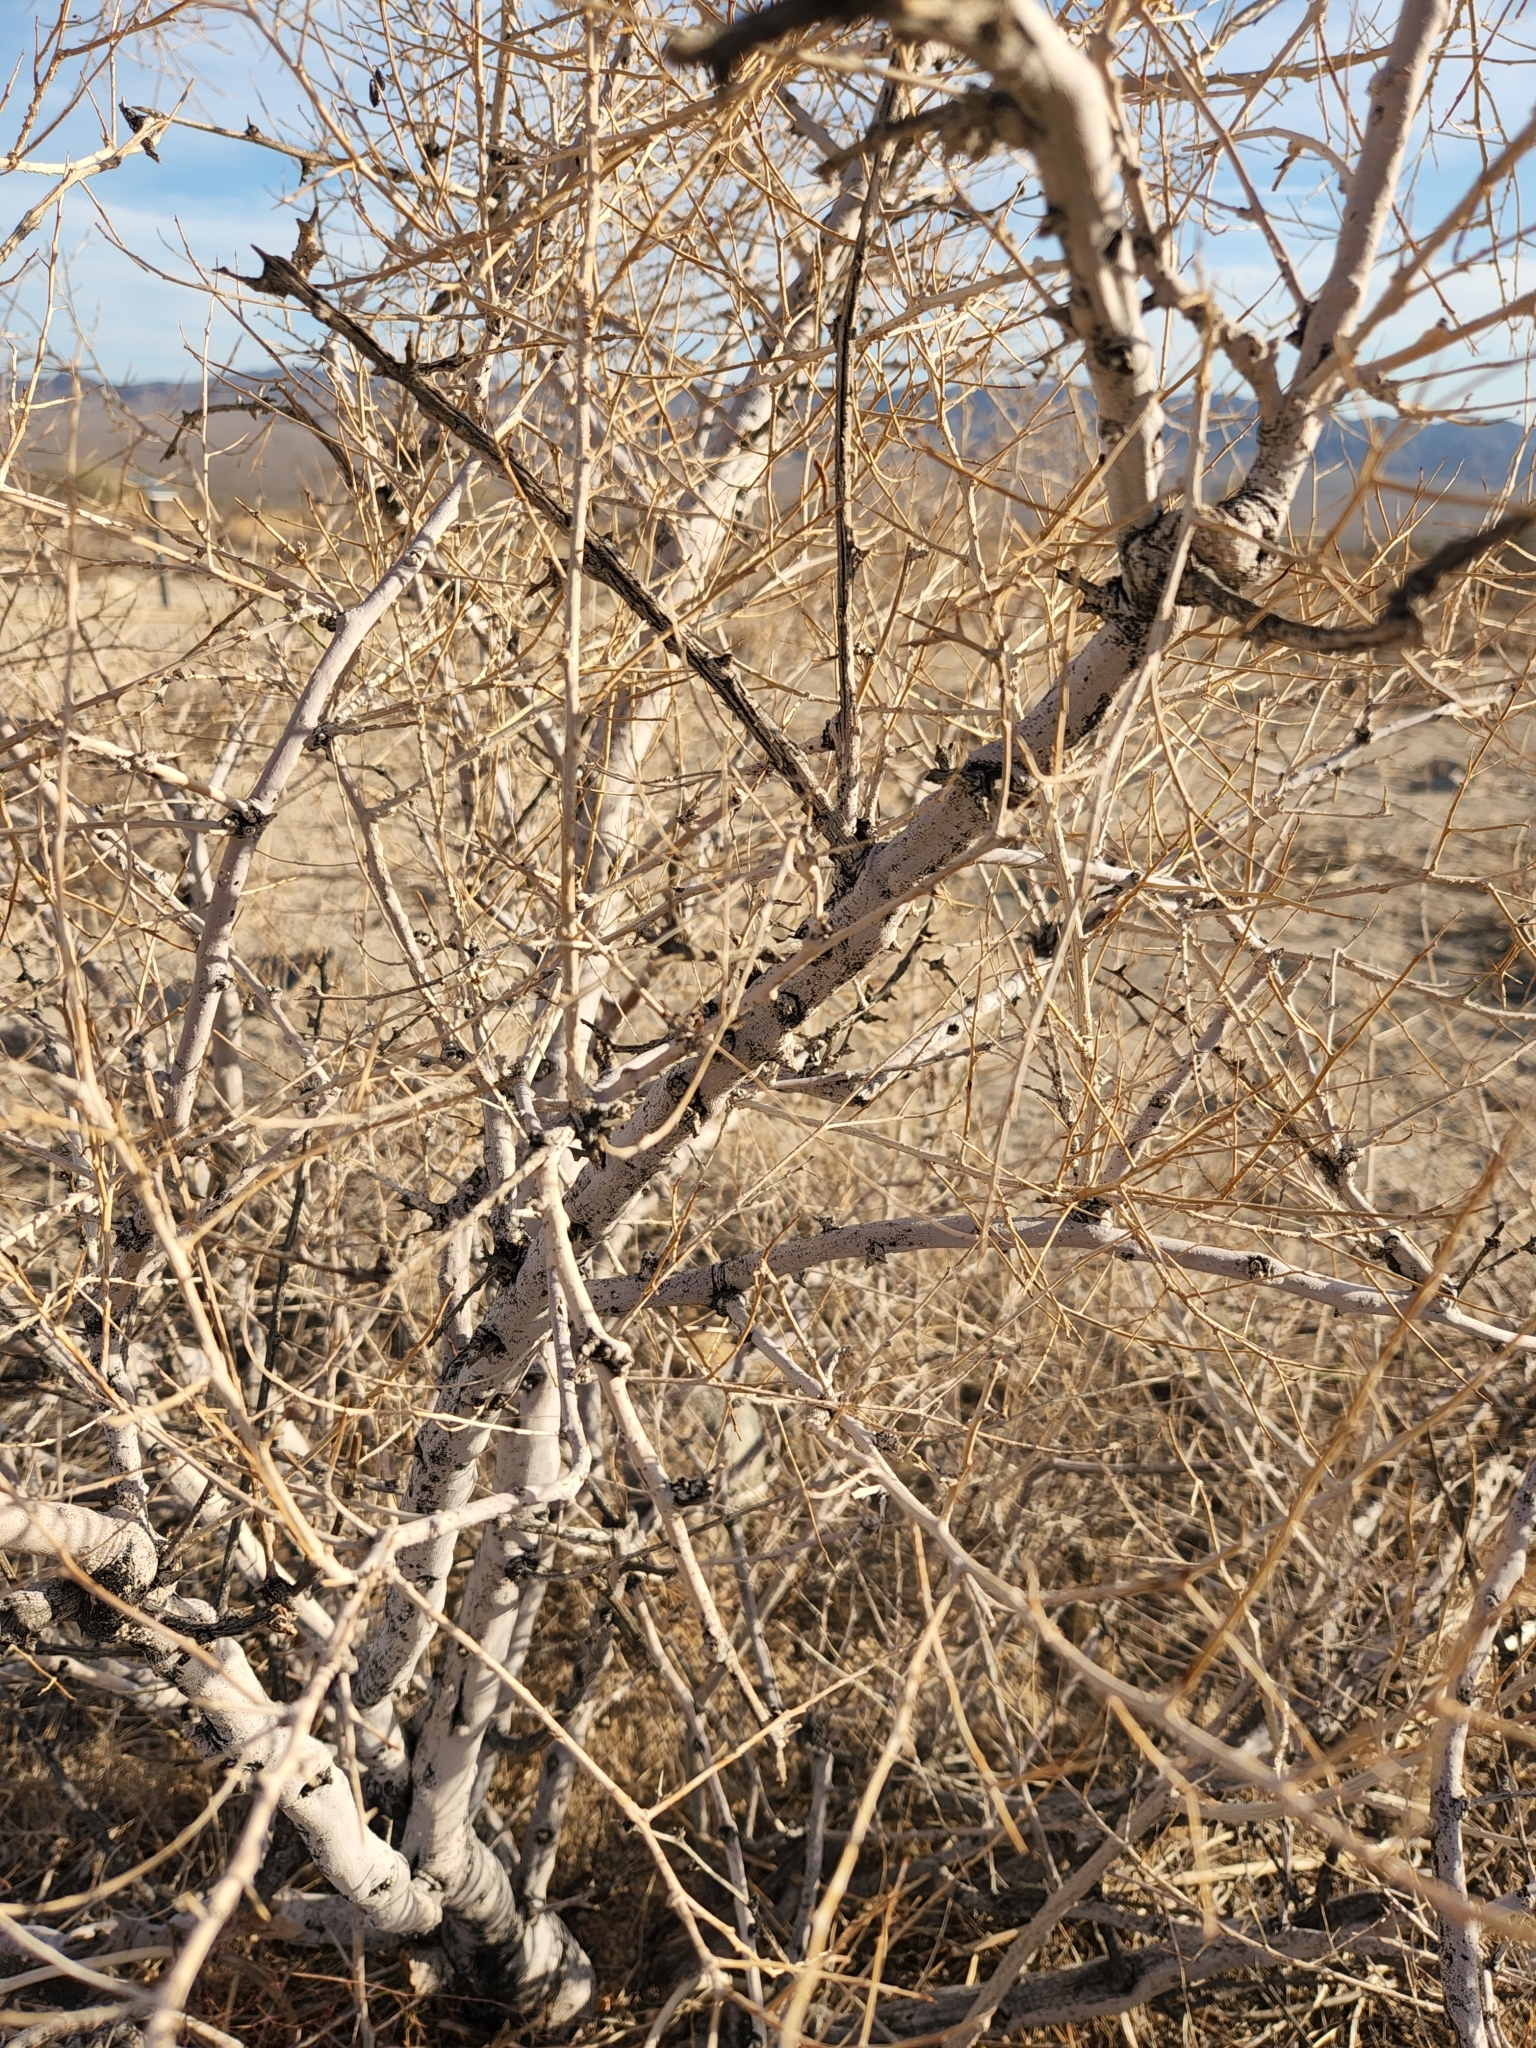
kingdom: Plantae
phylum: Tracheophyta
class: Magnoliopsida
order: Fabales
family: Fabaceae
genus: Psorothamnus
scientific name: Psorothamnus schottii
